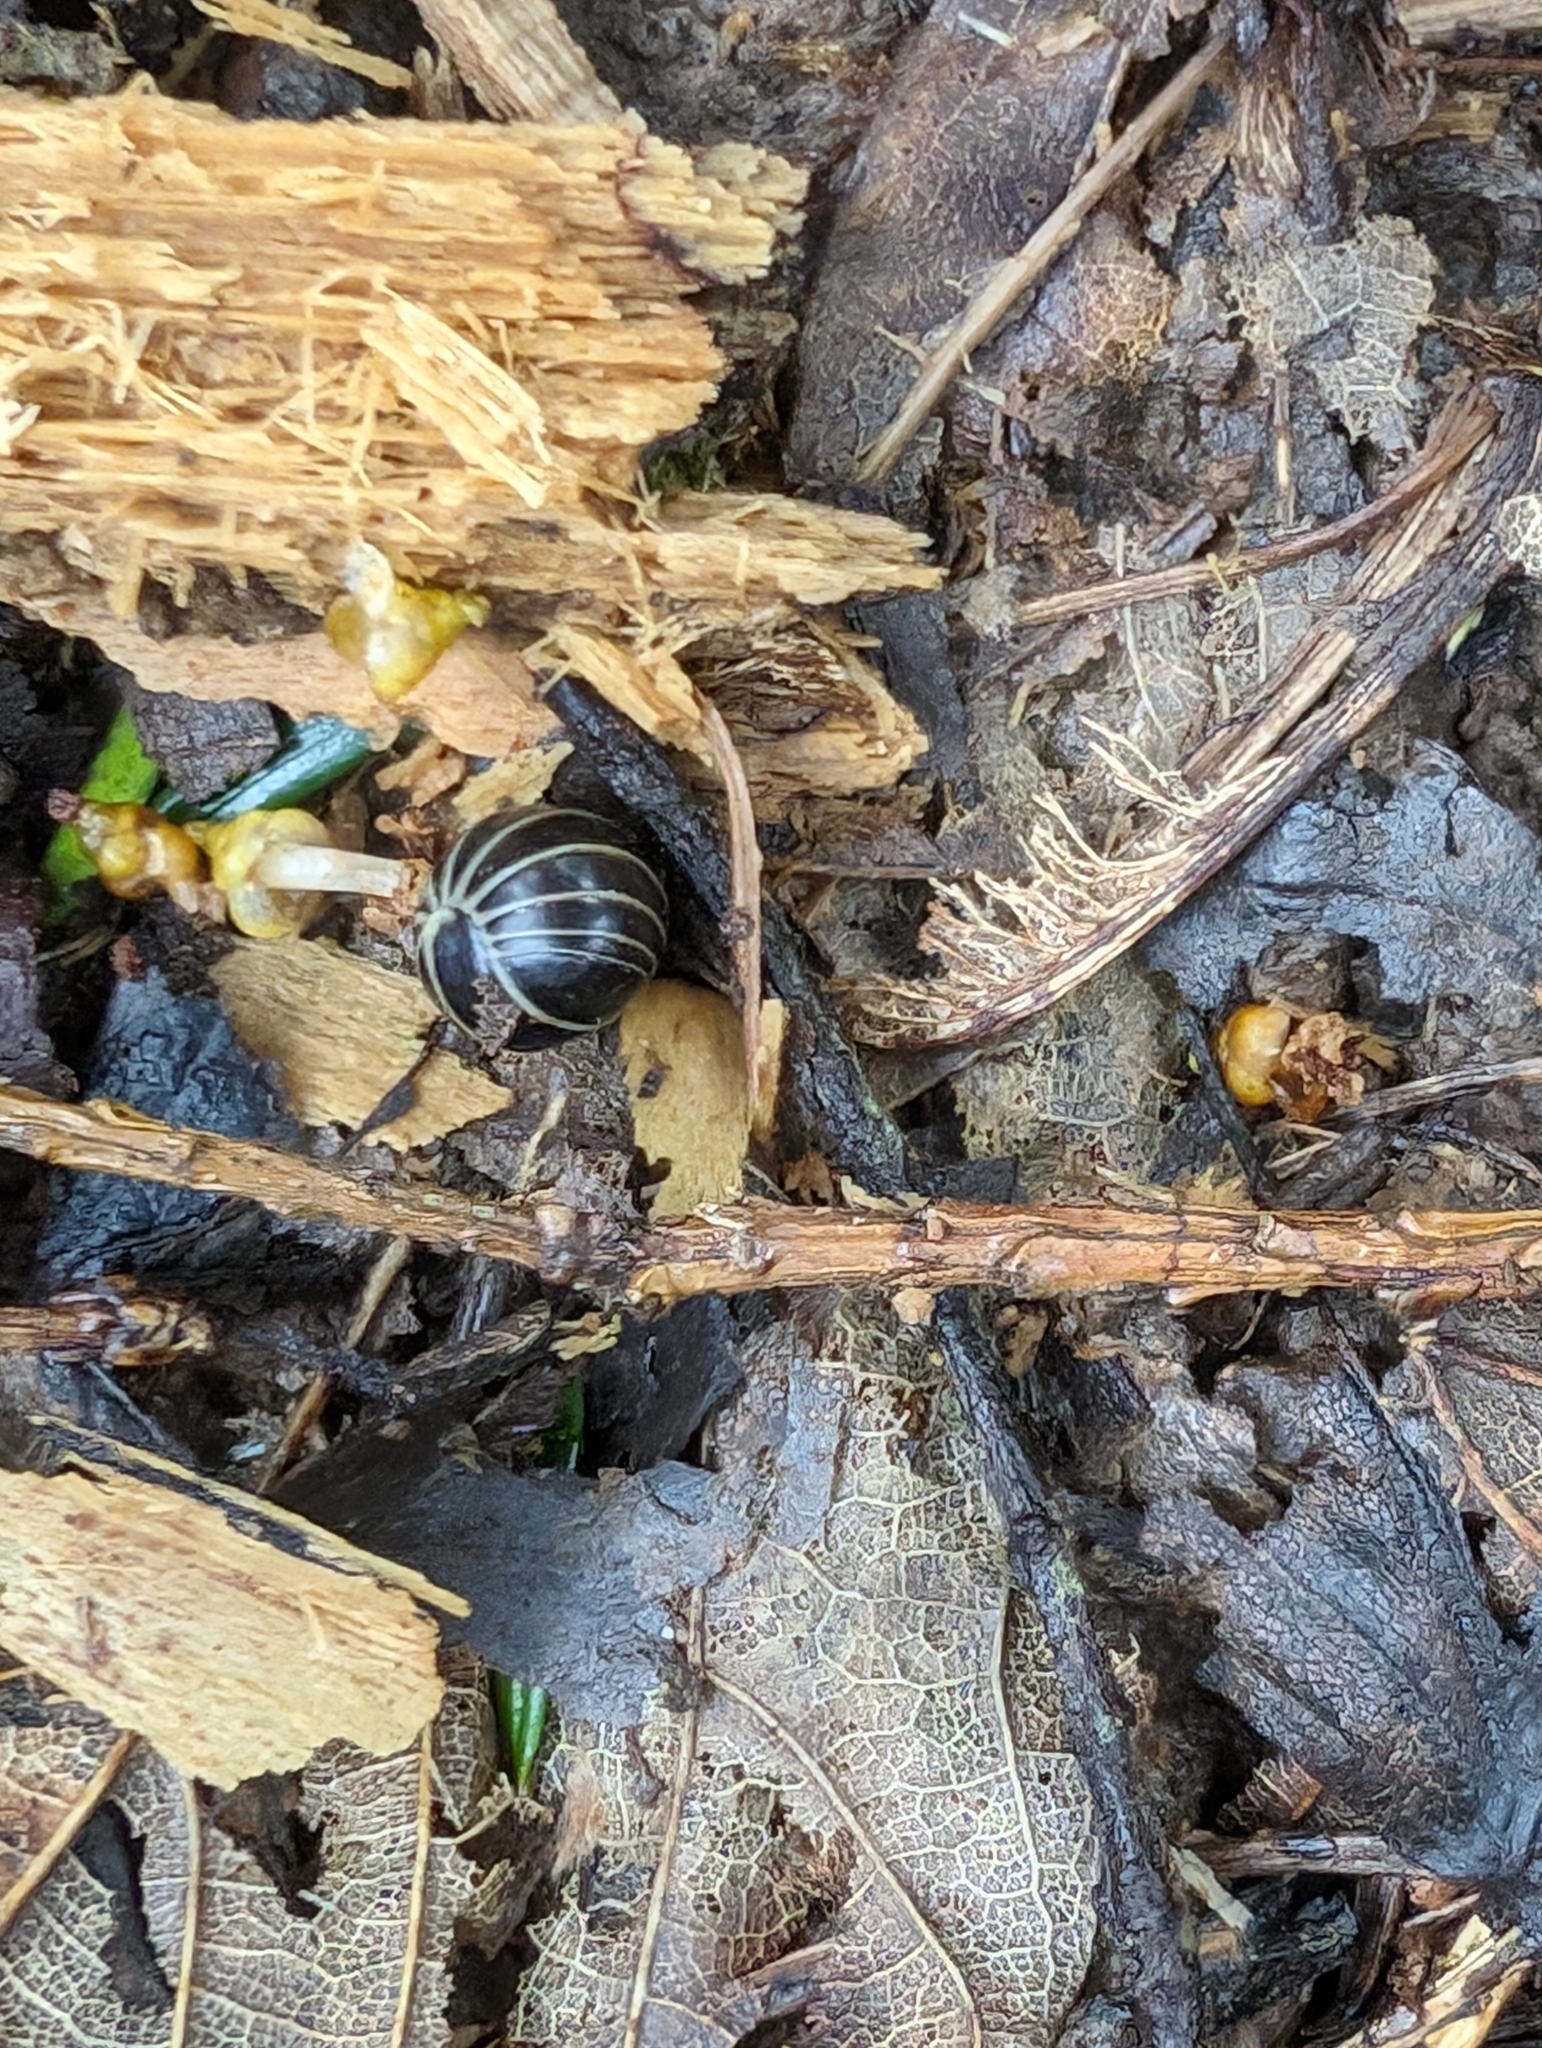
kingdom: Animalia
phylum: Arthropoda
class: Diplopoda
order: Glomerida
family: Glomeridae
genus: Glomeris
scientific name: Glomeris marginata
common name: Bordered pill millipede
